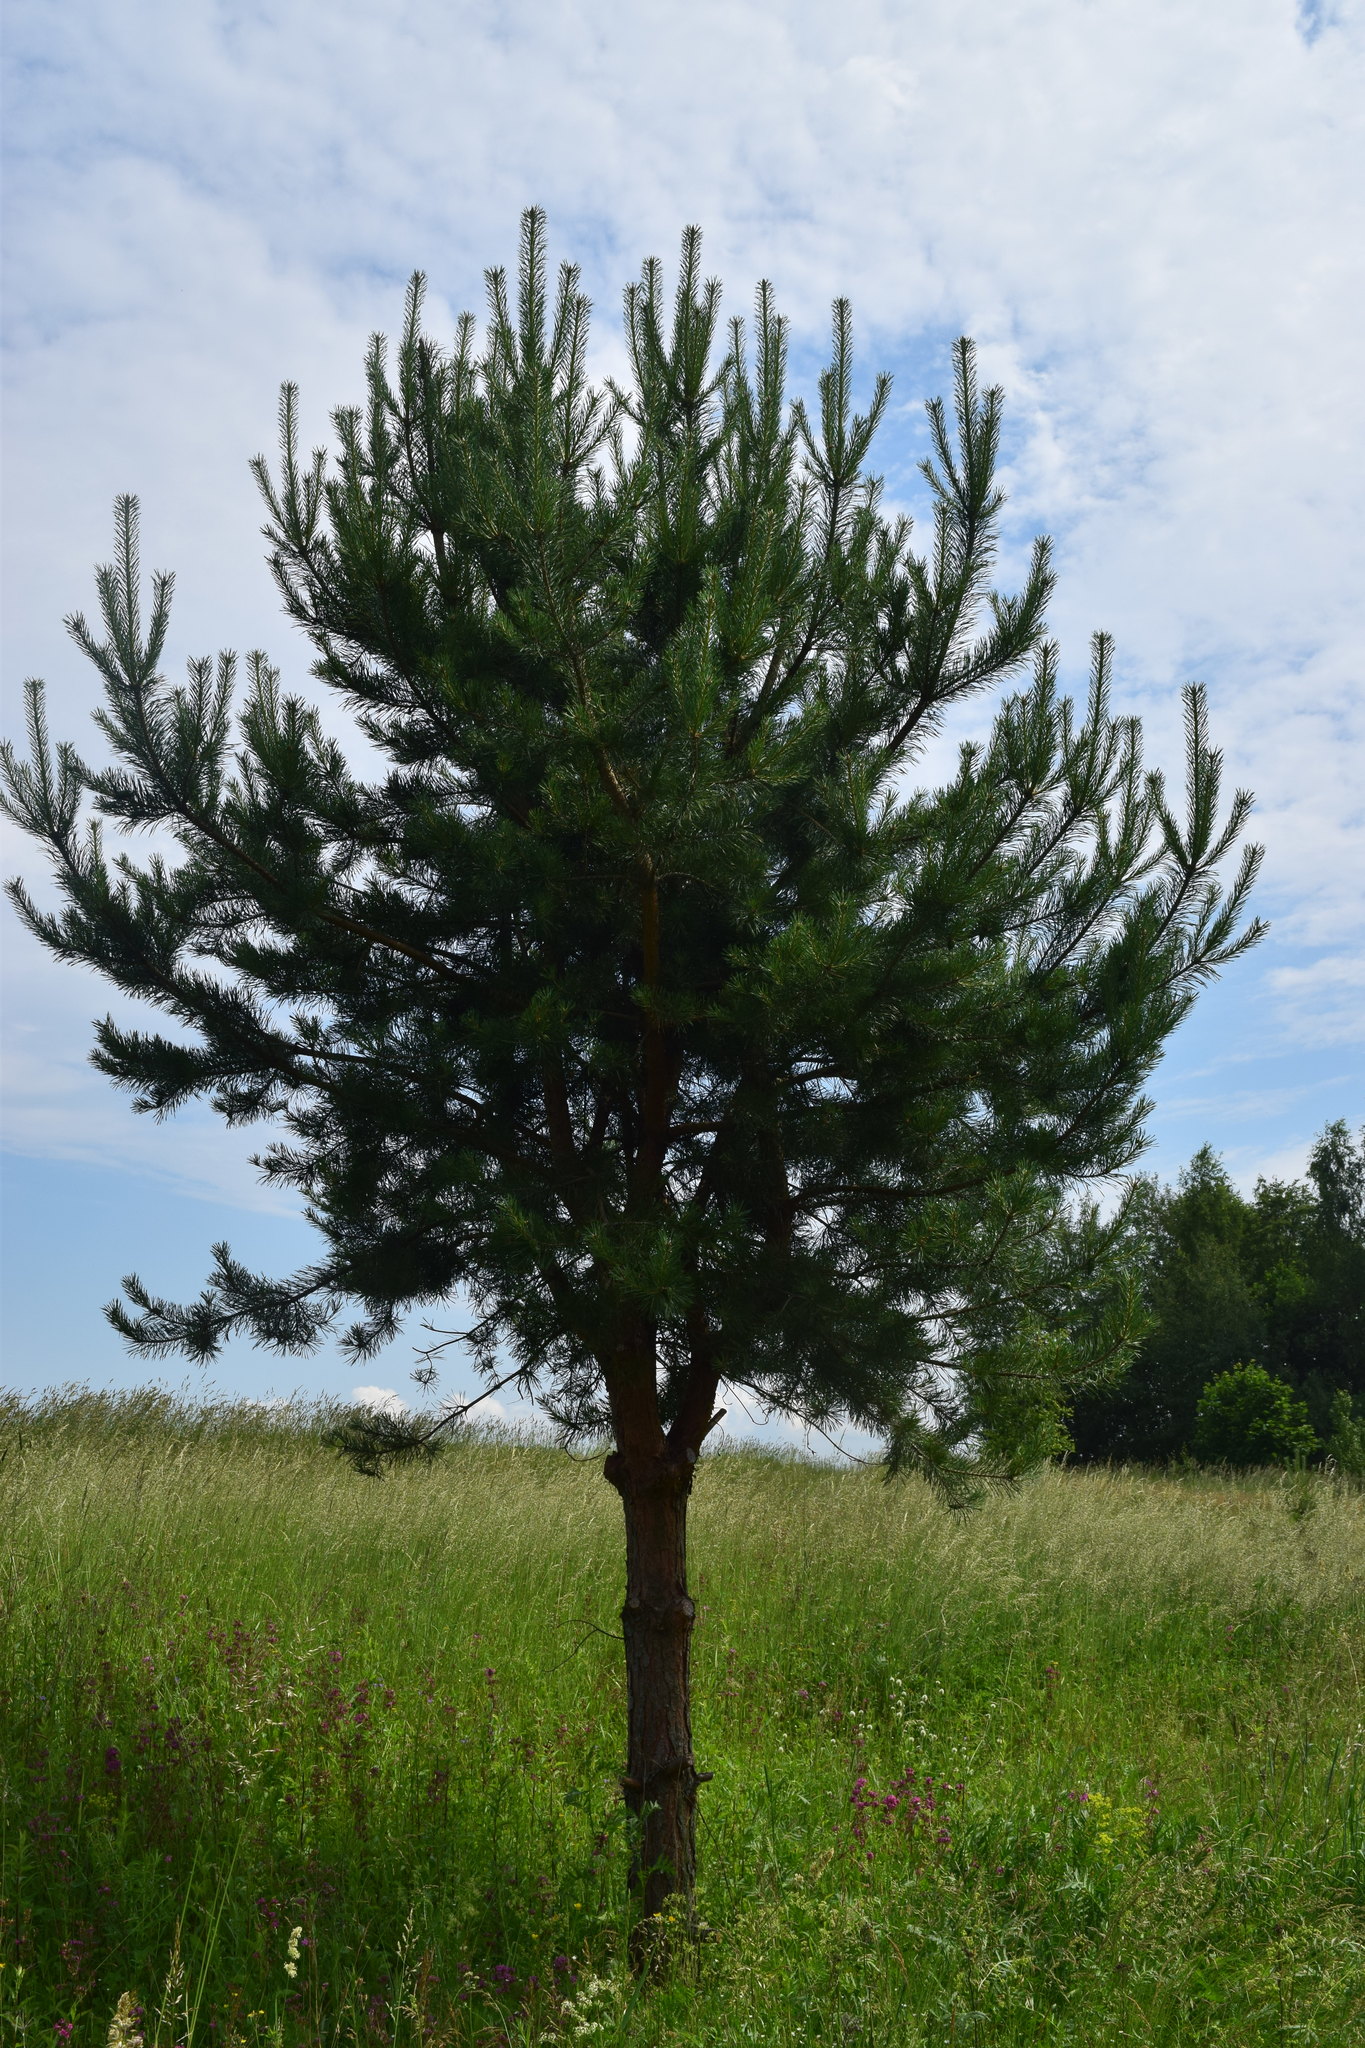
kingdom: Plantae
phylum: Tracheophyta
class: Pinopsida
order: Pinales
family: Pinaceae
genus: Pinus
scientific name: Pinus sylvestris
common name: Scots pine
